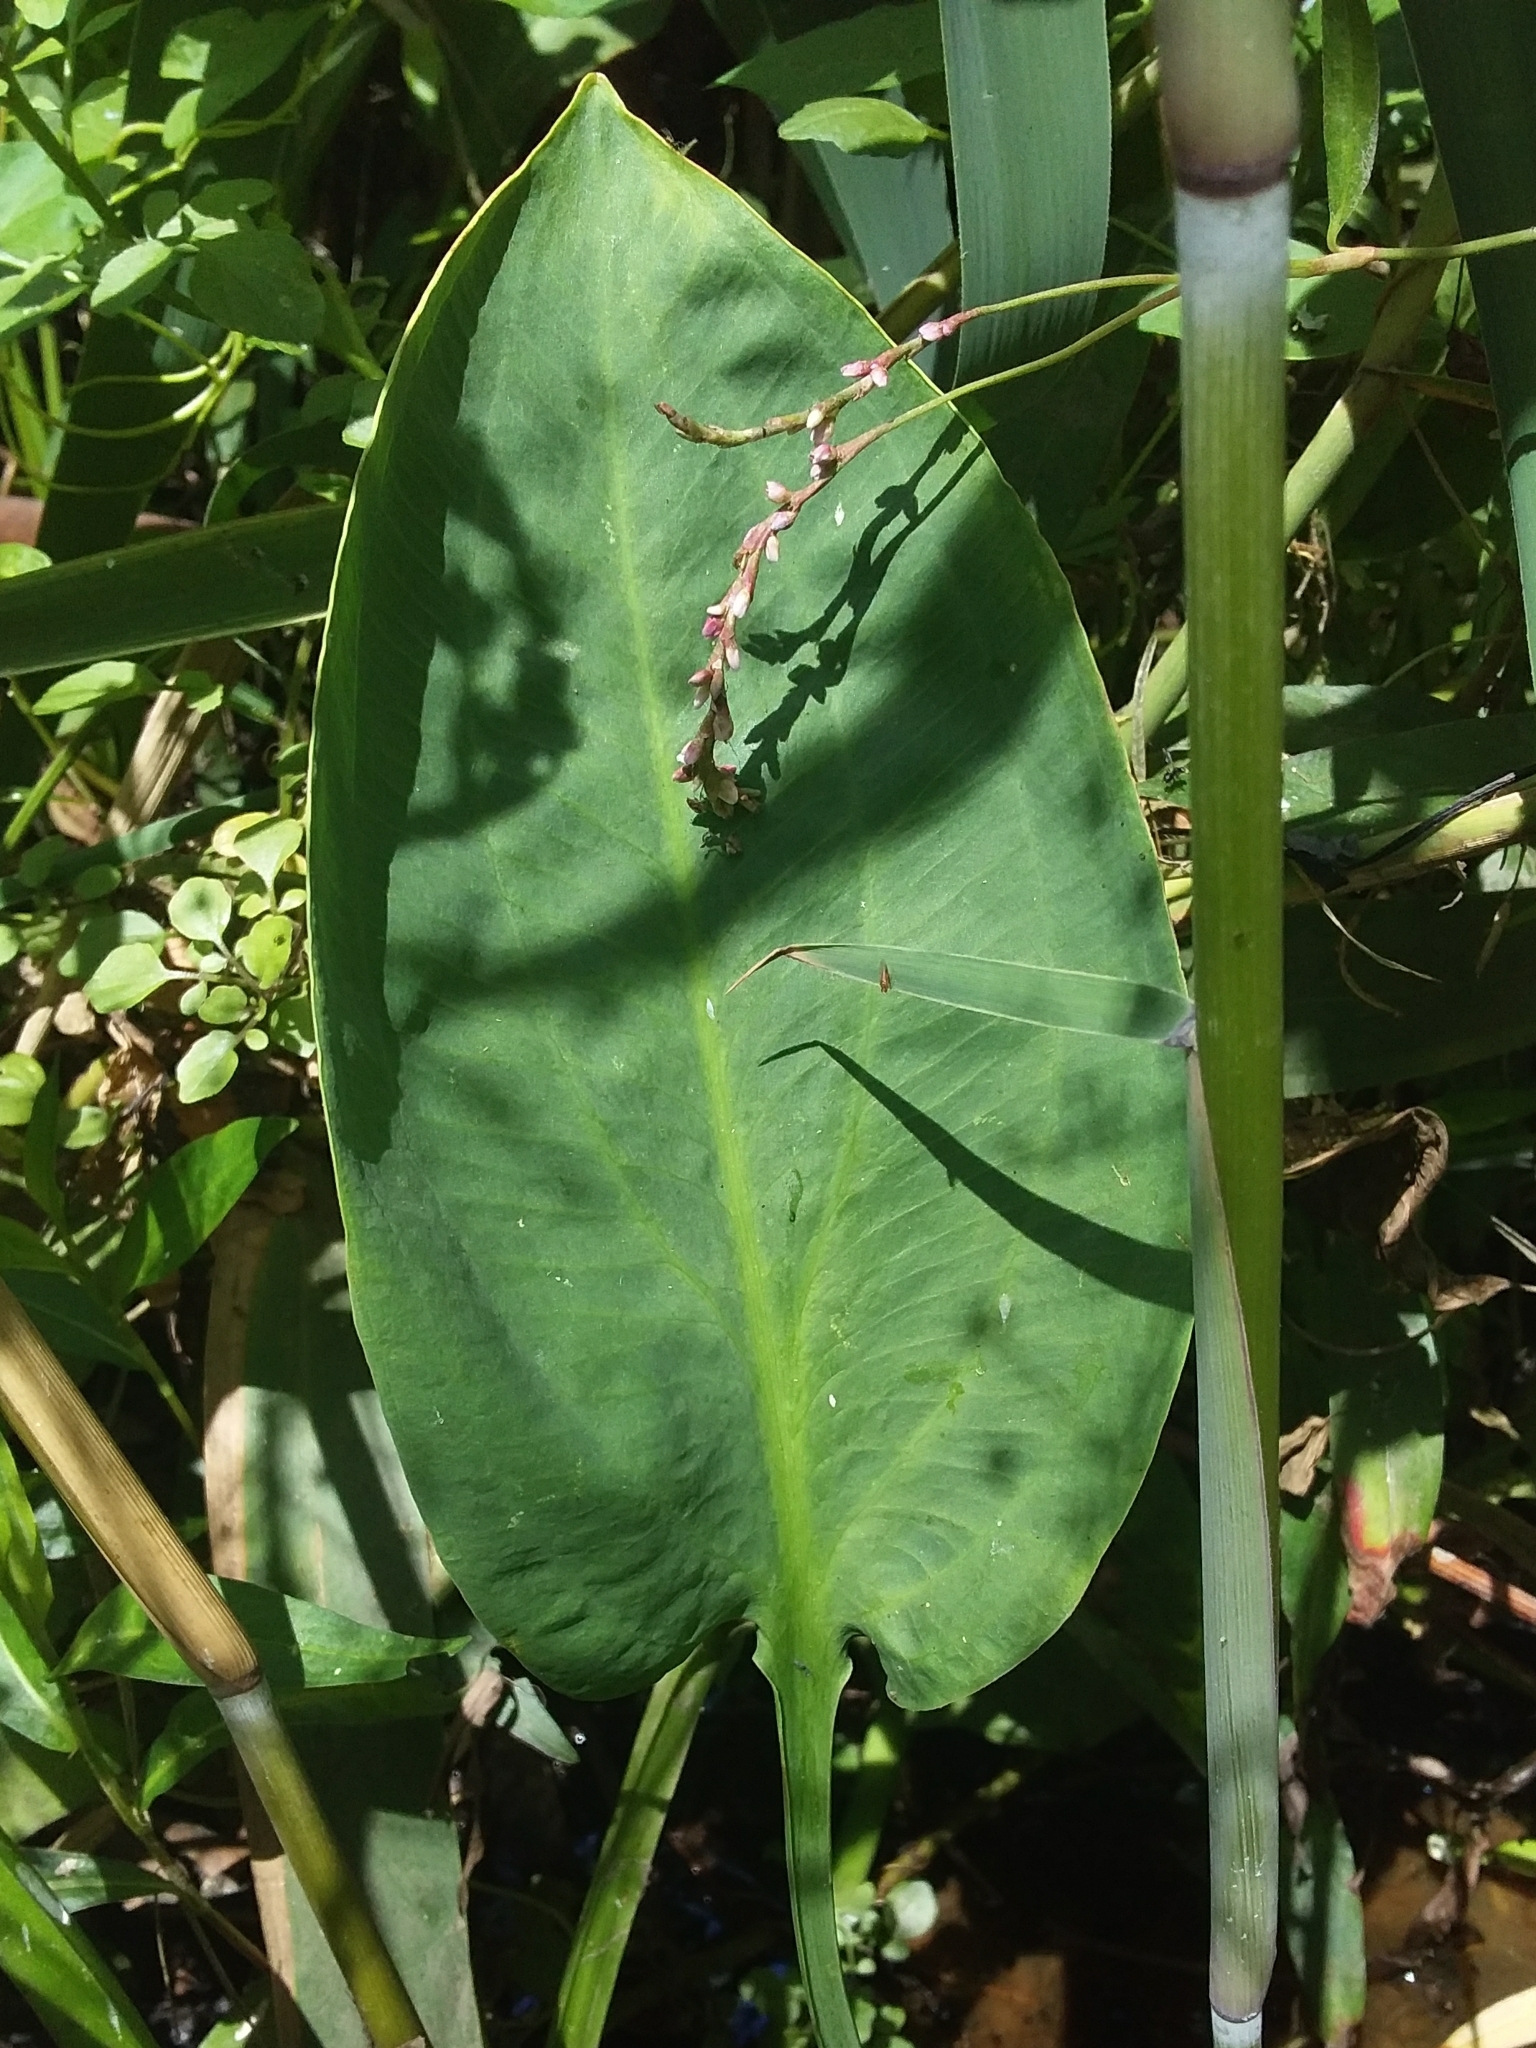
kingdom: Plantae
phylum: Tracheophyta
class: Liliopsida
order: Alismatales
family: Alismataceae
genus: Alisma
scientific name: Alisma plantago-aquatica
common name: Water-plantain
